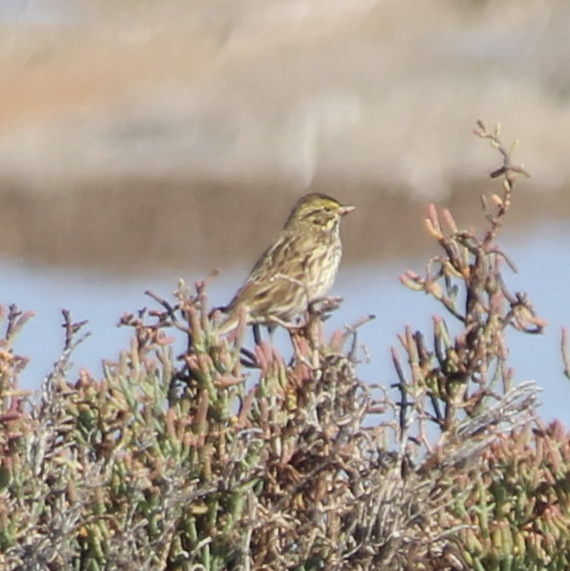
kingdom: Animalia
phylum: Chordata
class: Aves
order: Passeriformes
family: Passerellidae
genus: Passerculus
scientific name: Passerculus sandwichensis
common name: Savannah sparrow
